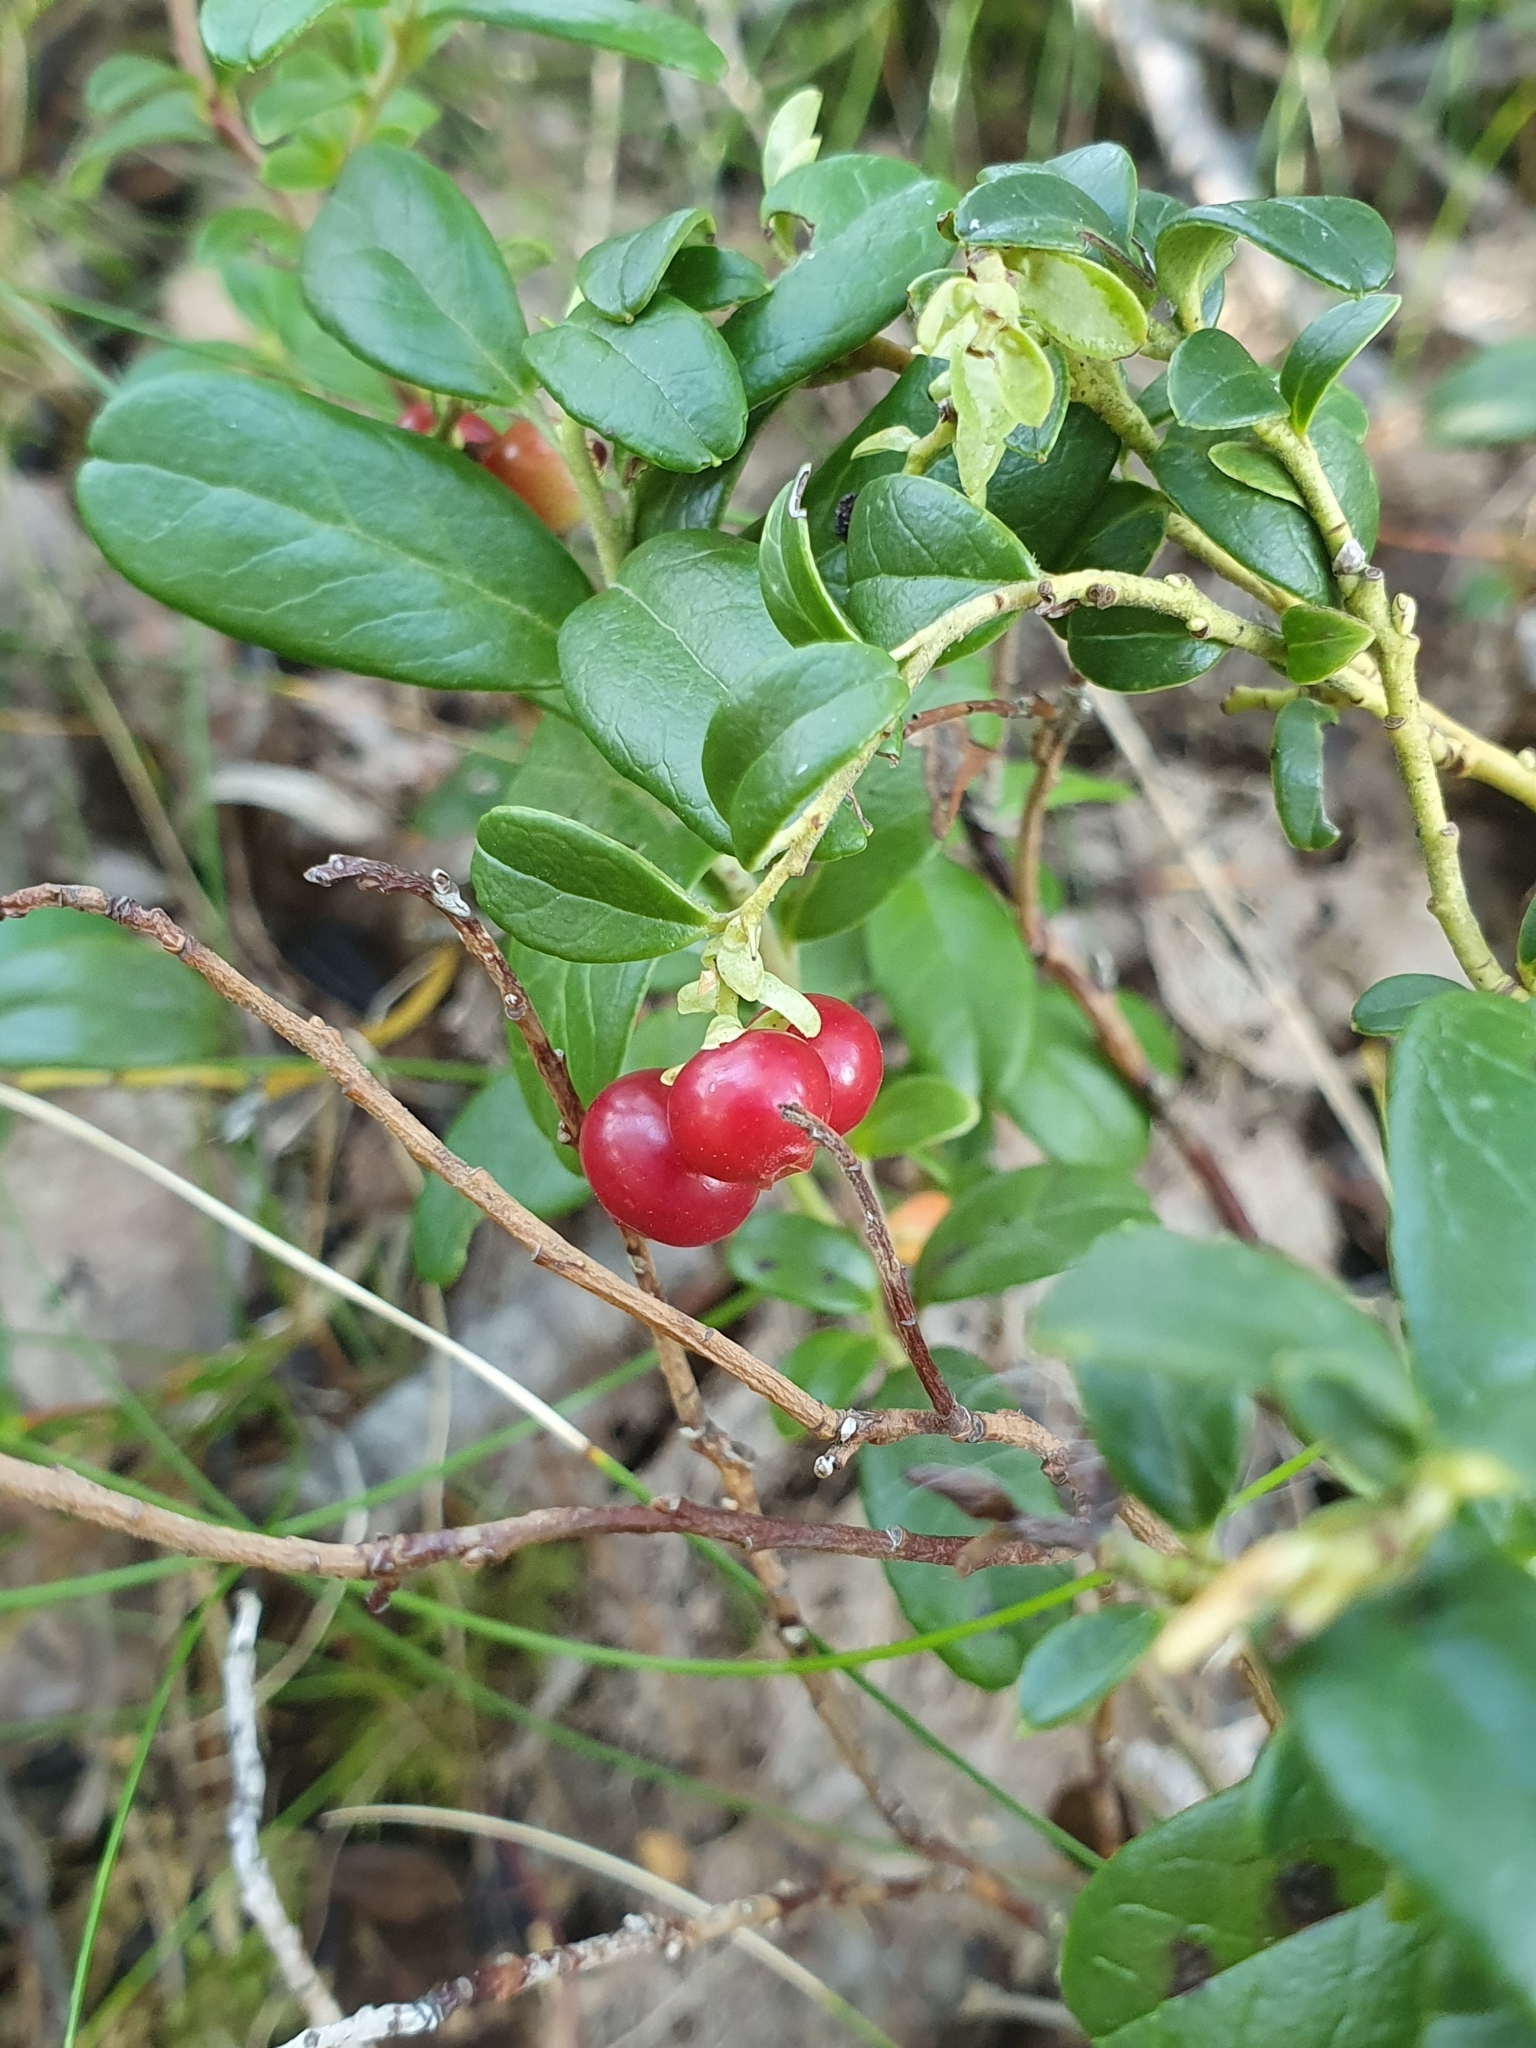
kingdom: Plantae
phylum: Tracheophyta
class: Magnoliopsida
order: Ericales
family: Ericaceae
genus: Vaccinium
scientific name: Vaccinium vitis-idaea
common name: Cowberry
